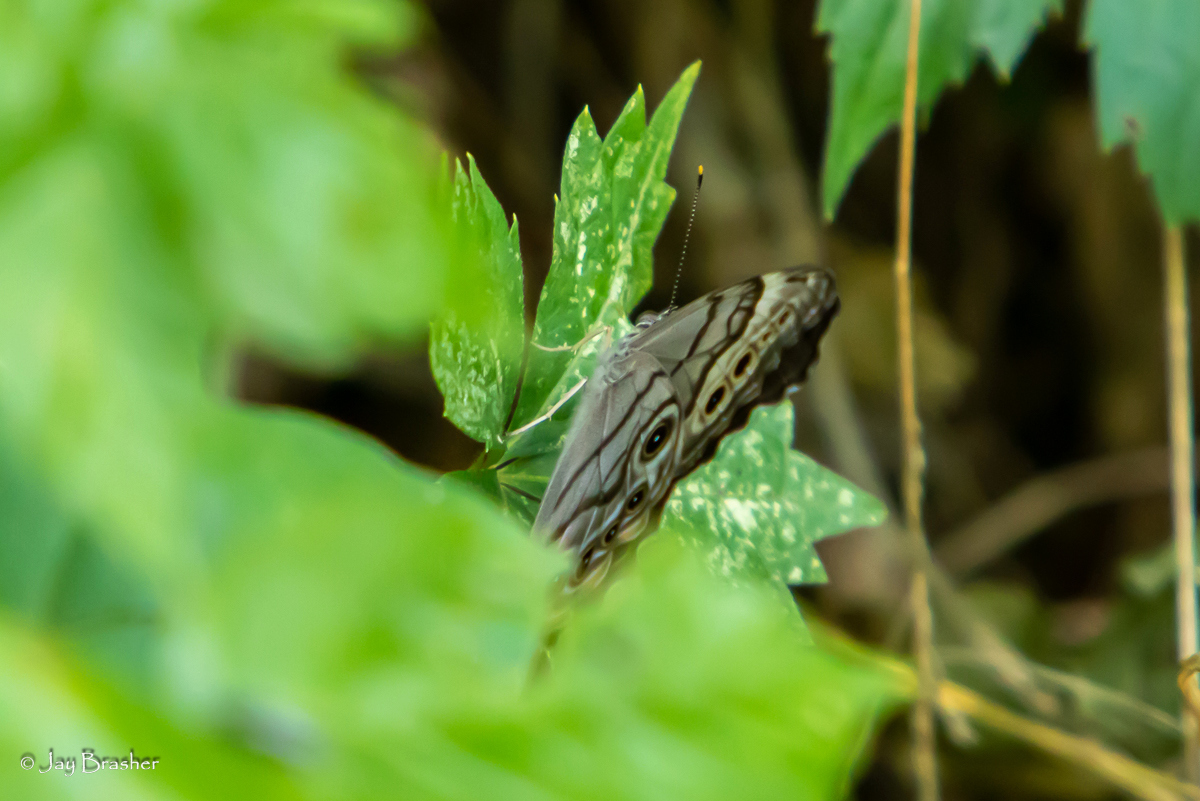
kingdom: Animalia
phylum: Arthropoda
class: Insecta
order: Lepidoptera
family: Nymphalidae
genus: Lethe
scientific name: Lethe anthedon
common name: Northern pearly-eye
